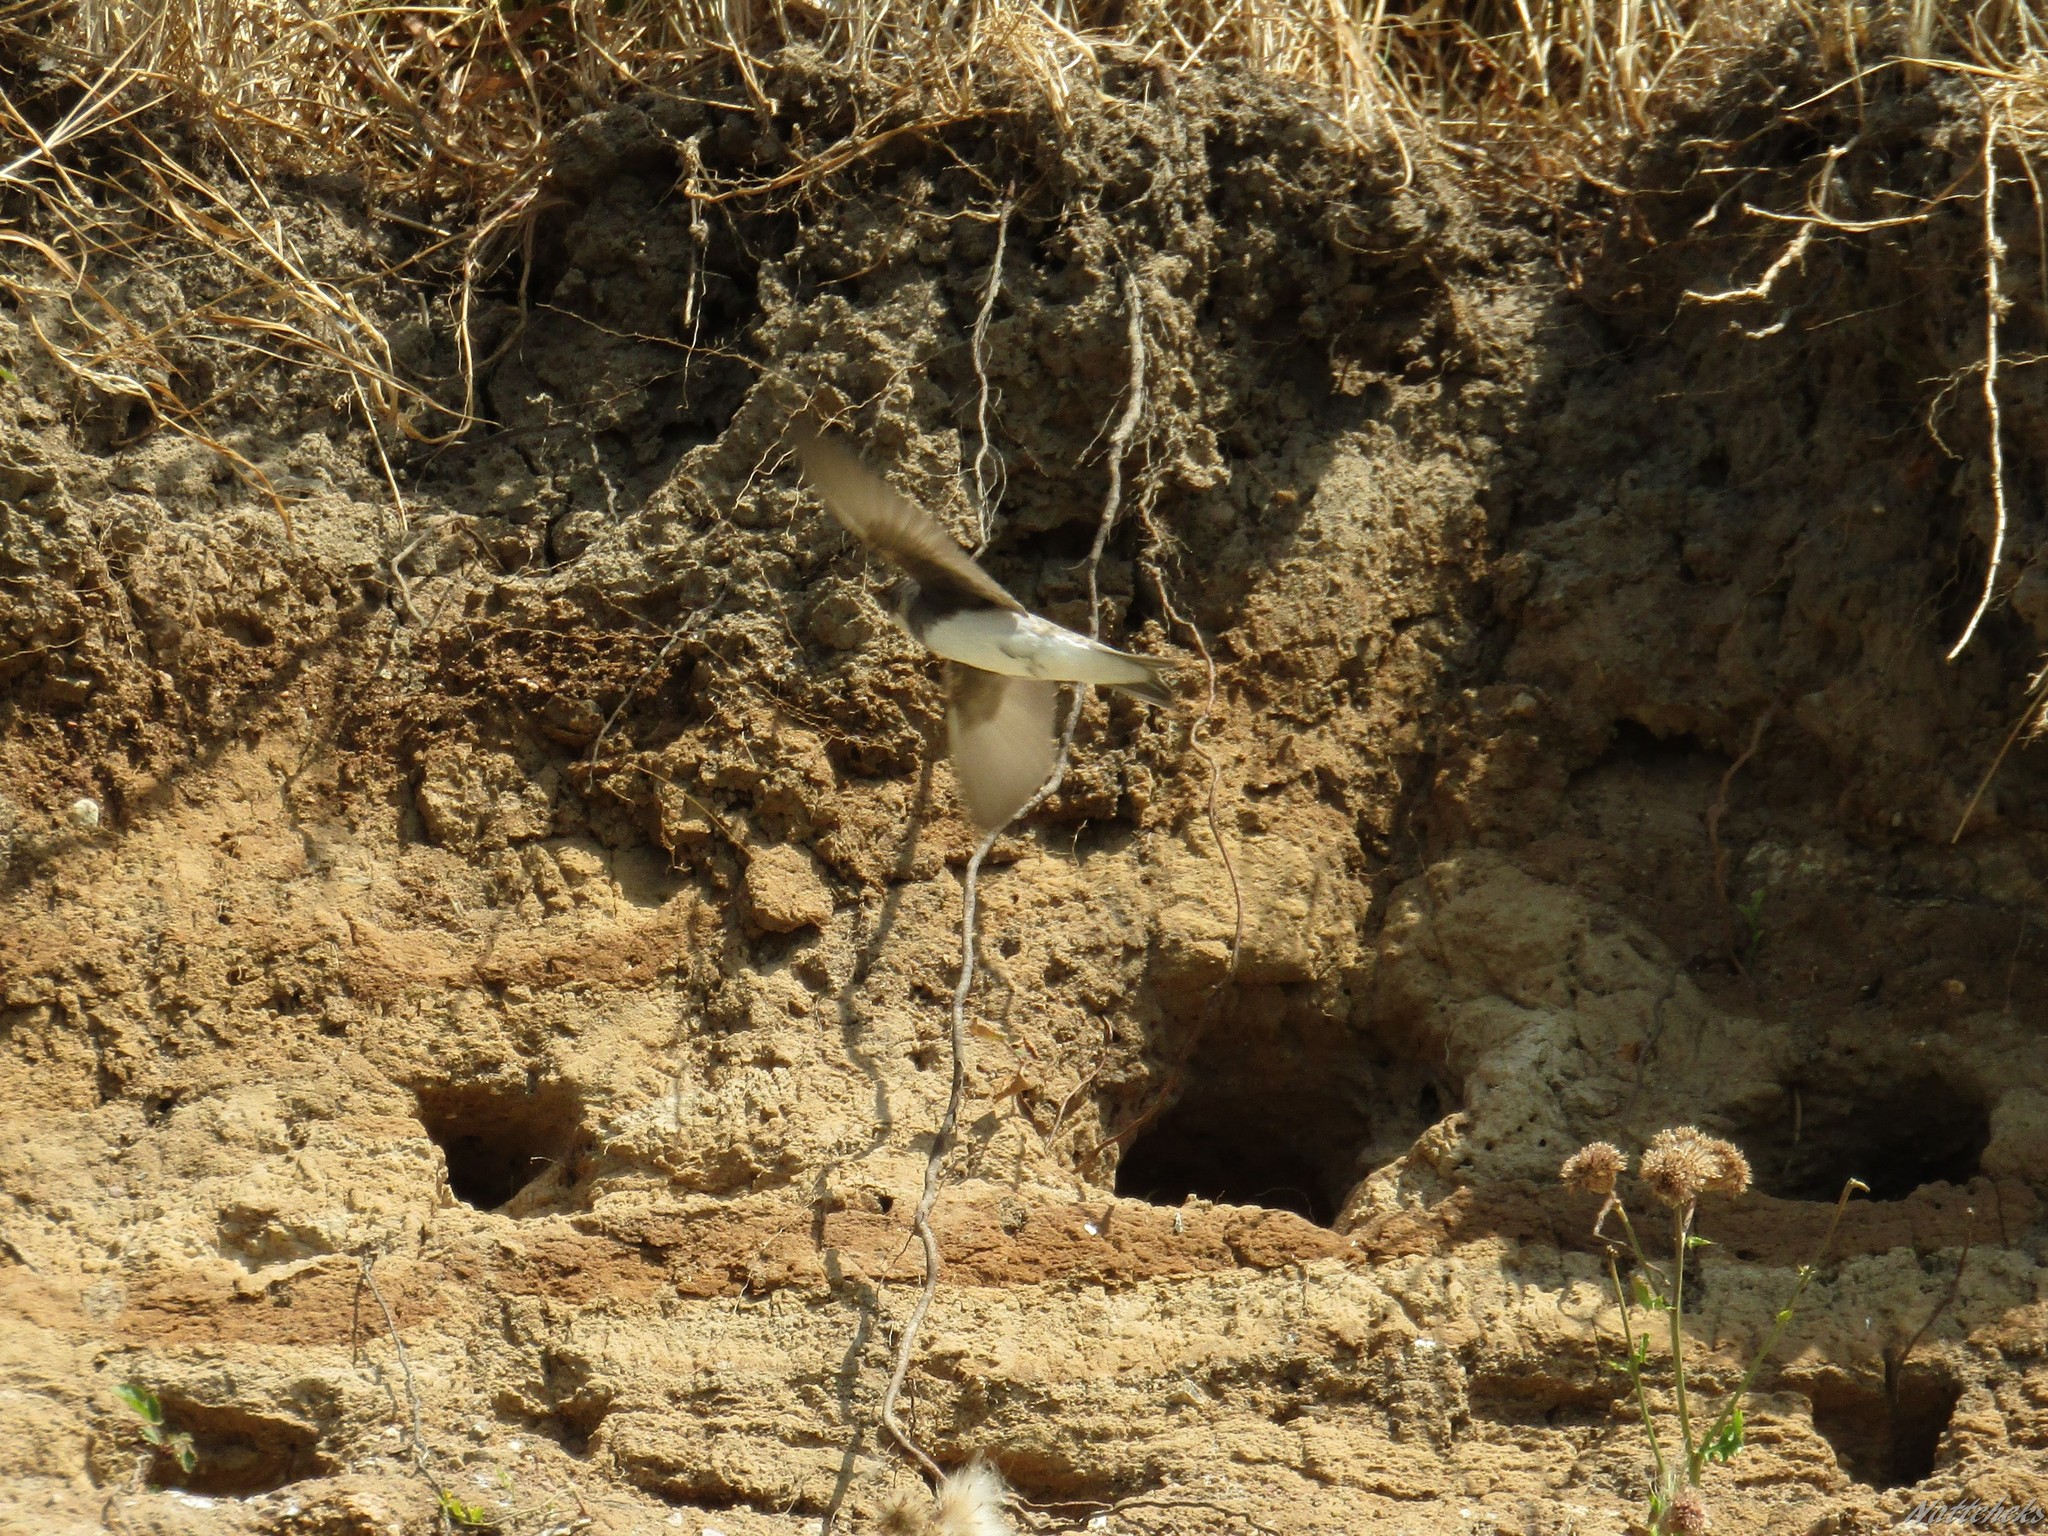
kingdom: Animalia
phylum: Chordata
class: Aves
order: Passeriformes
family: Hirundinidae
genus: Riparia
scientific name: Riparia riparia
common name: Sand martin
